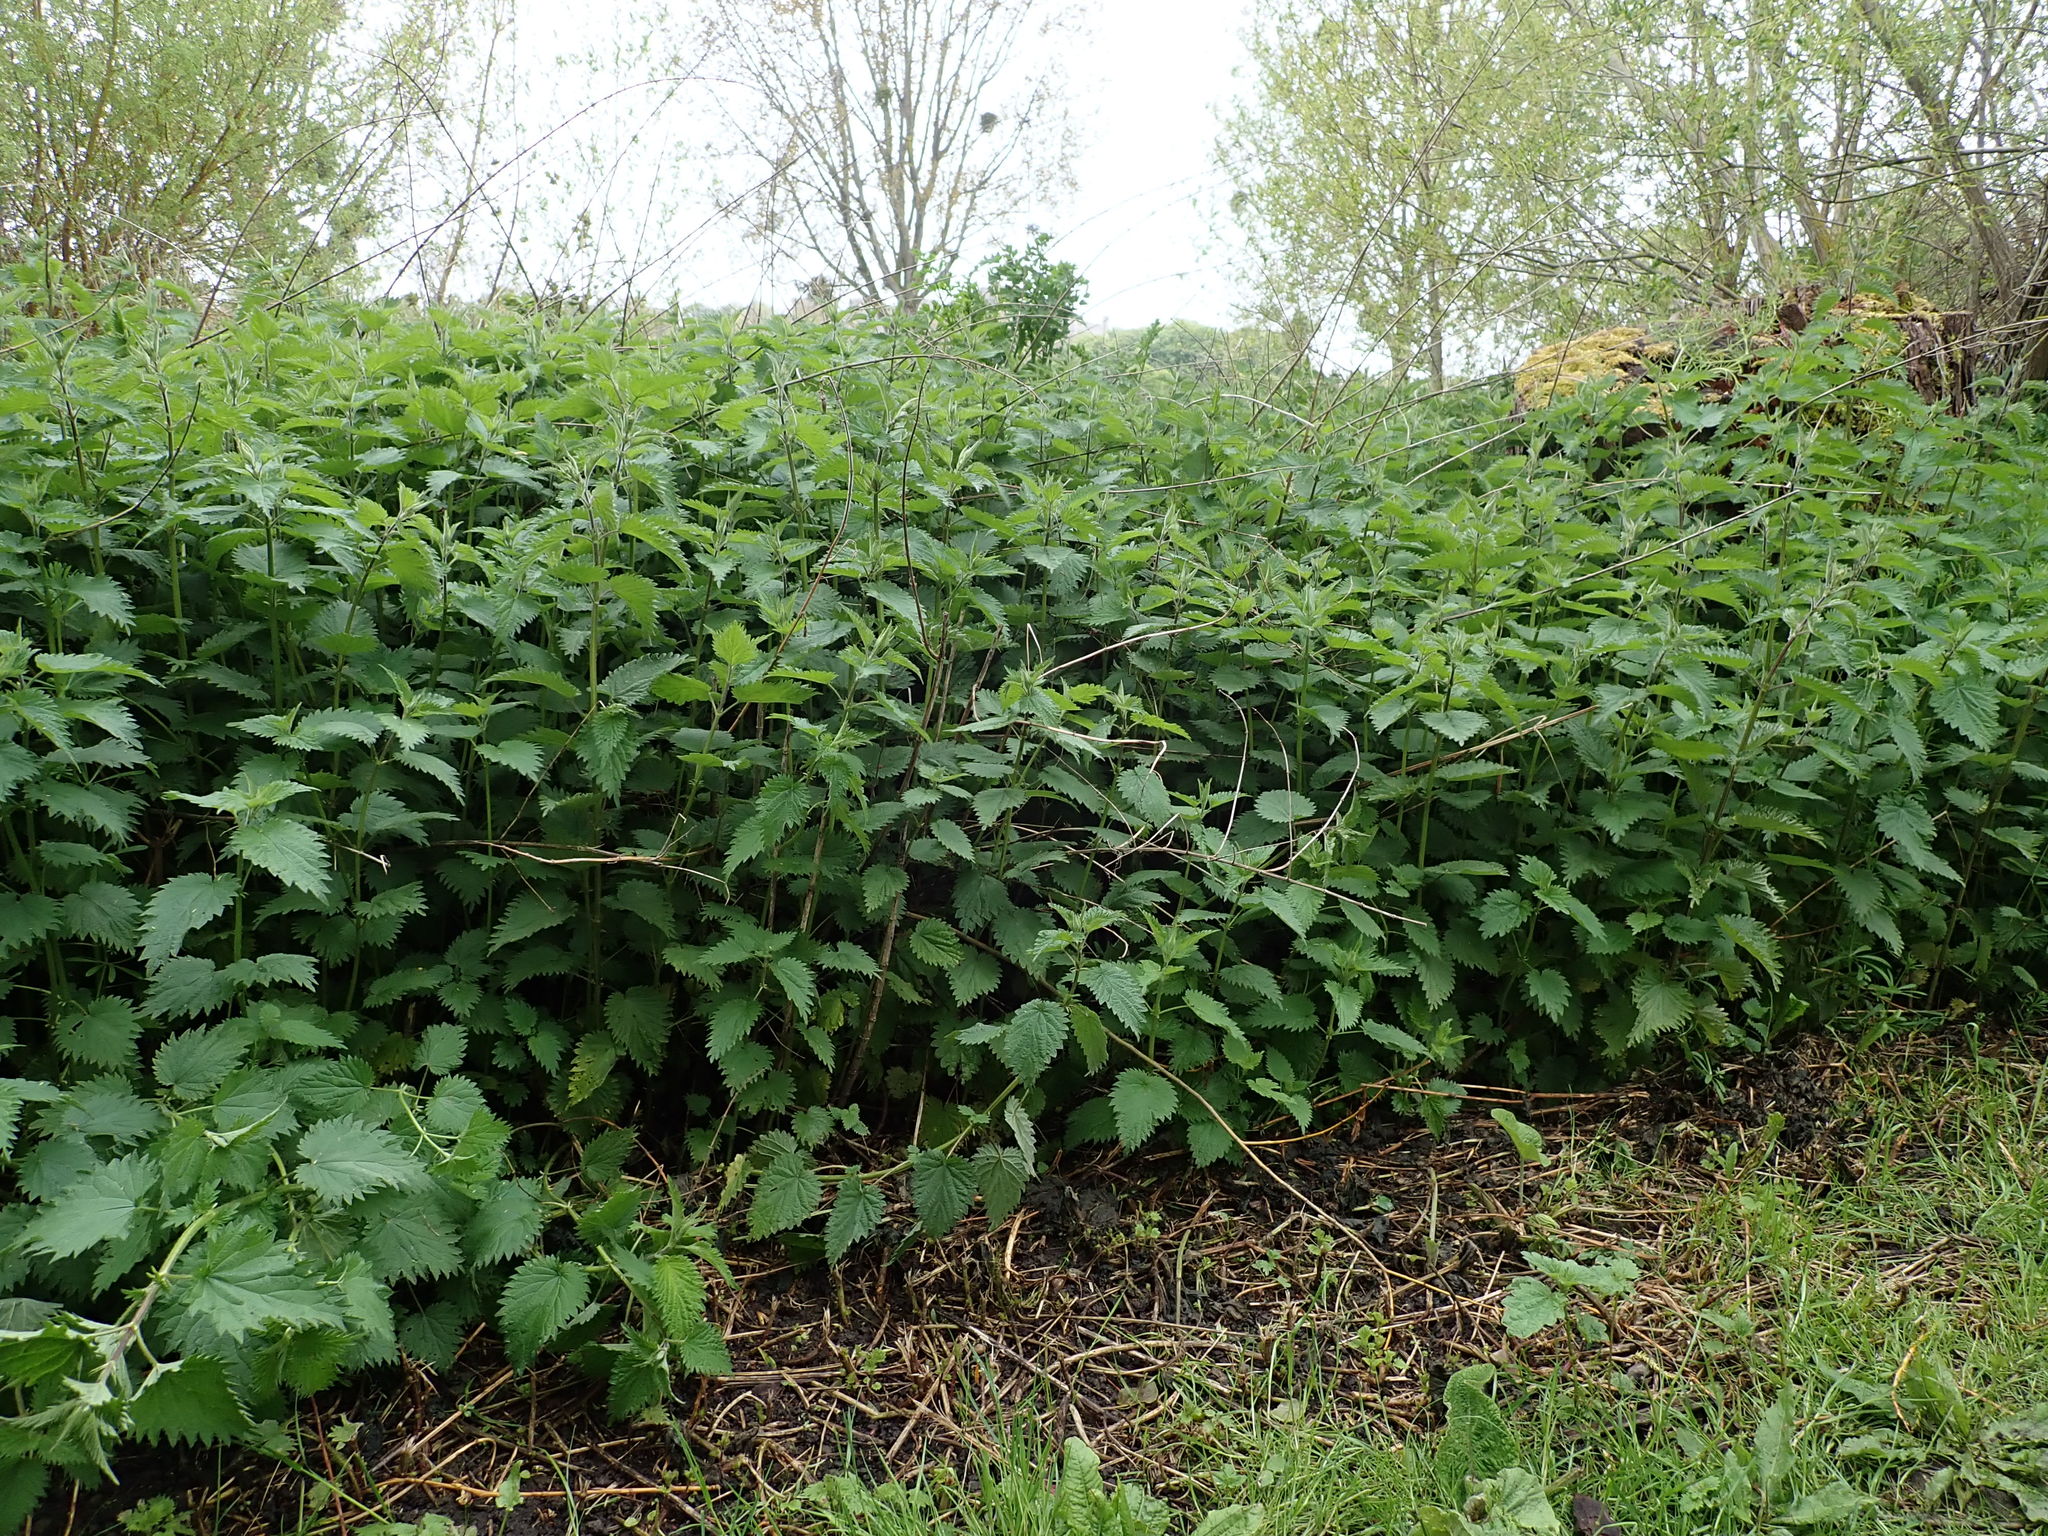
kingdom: Plantae
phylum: Tracheophyta
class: Magnoliopsida
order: Rosales
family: Urticaceae
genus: Urtica
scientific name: Urtica dioica
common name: Common nettle
